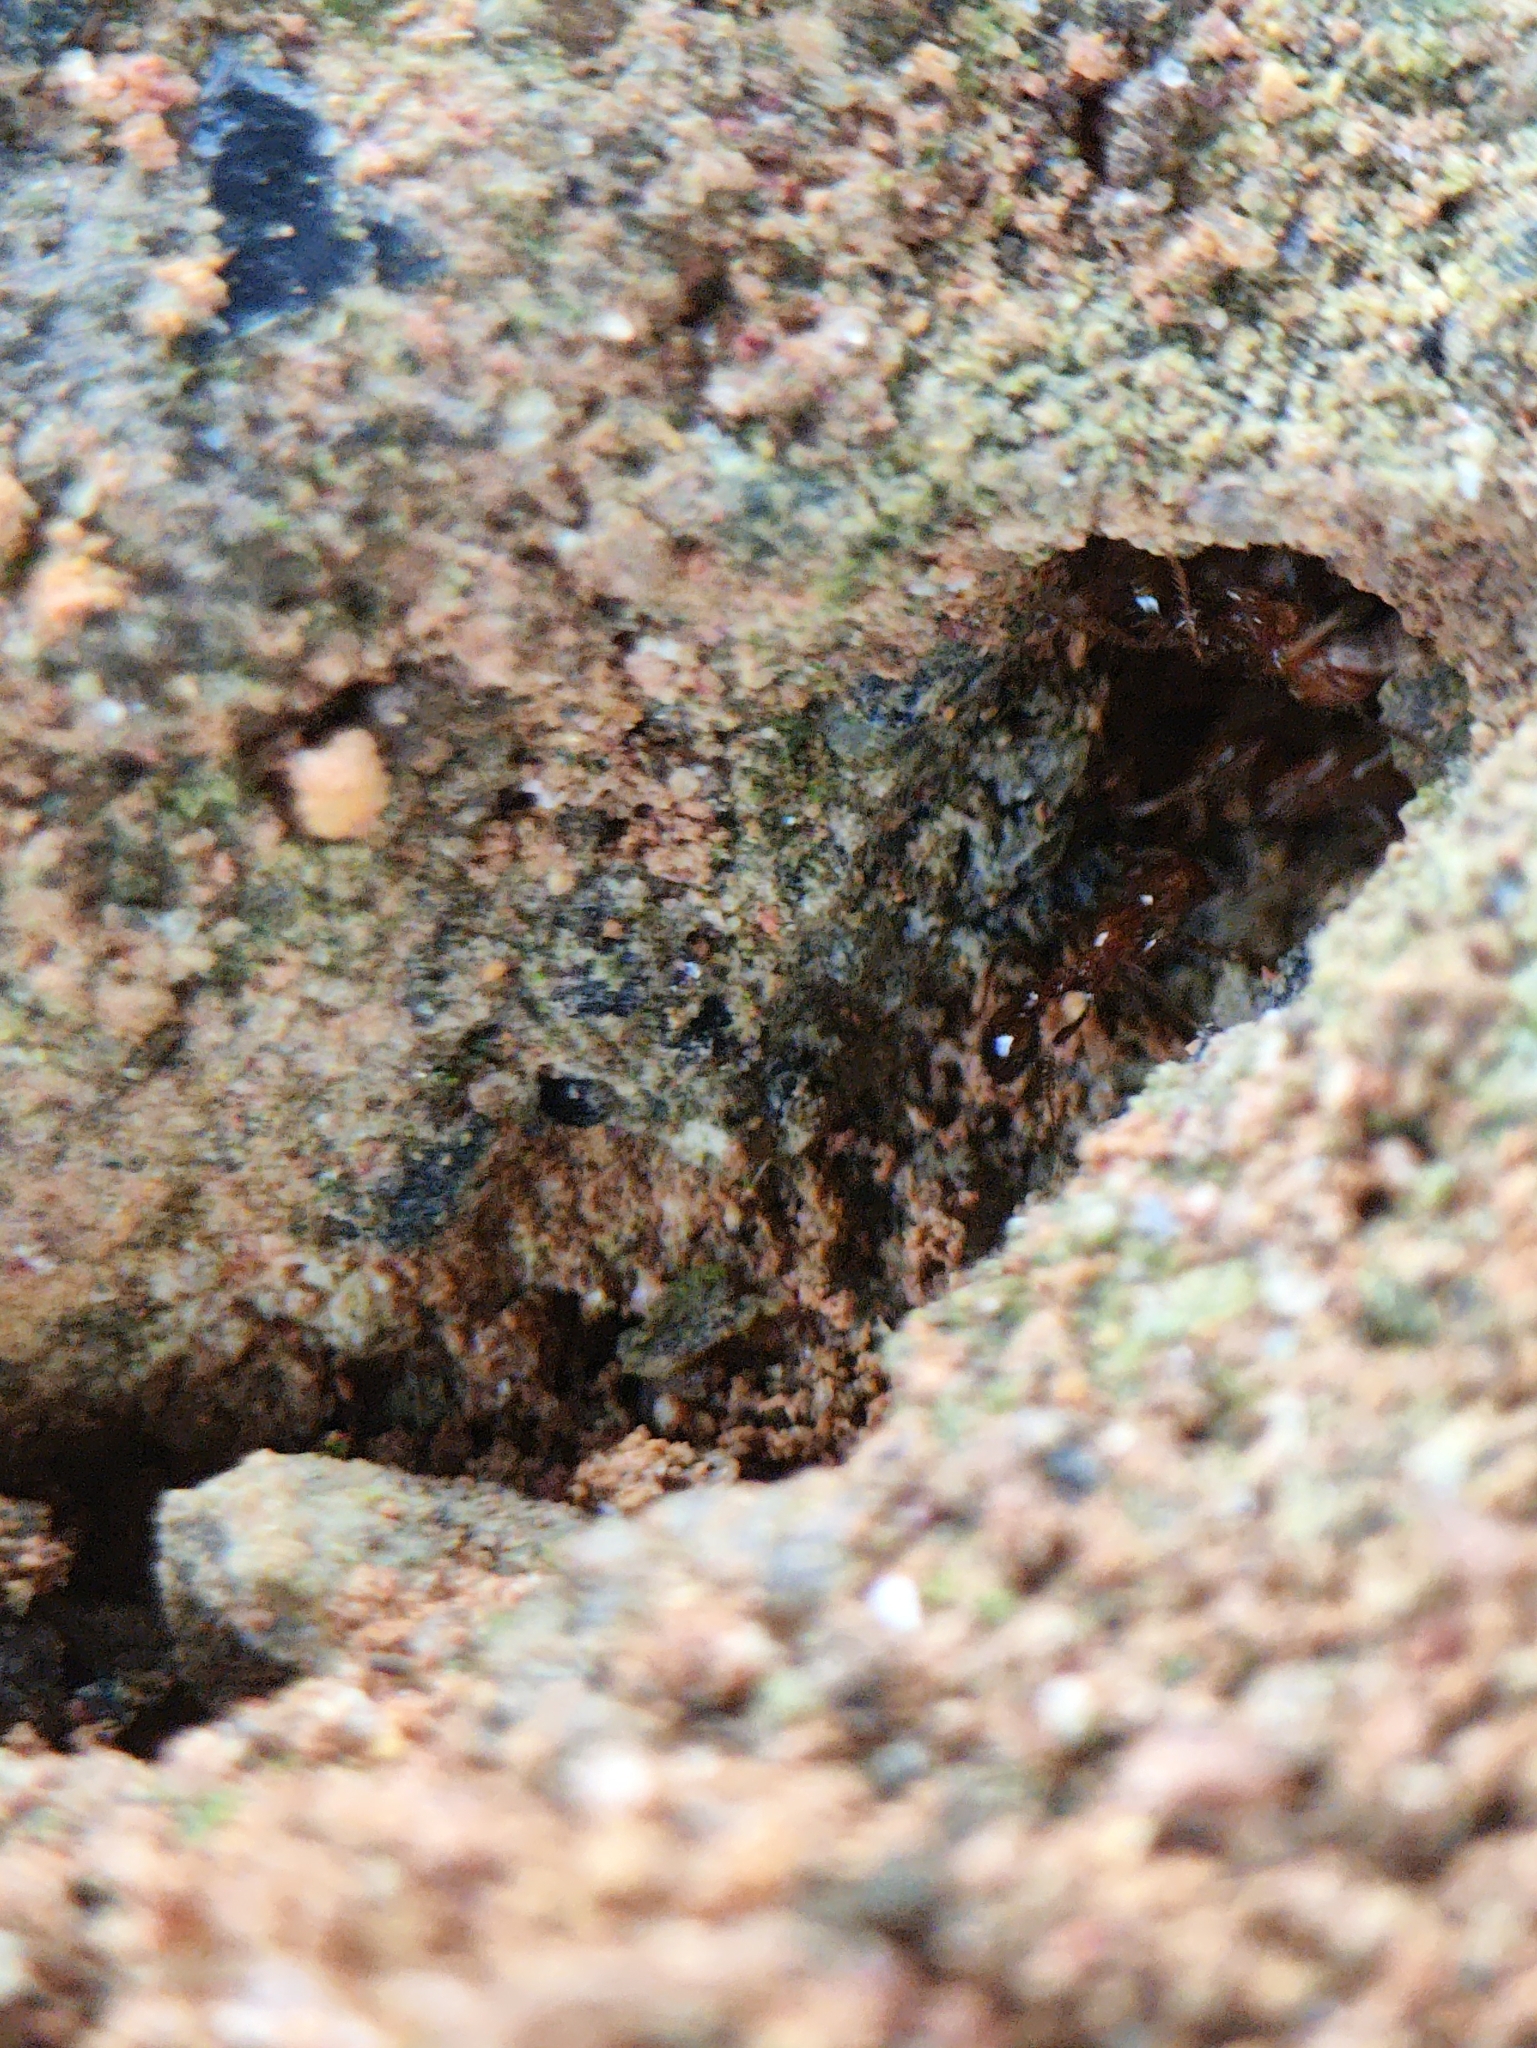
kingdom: Animalia
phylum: Arthropoda
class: Insecta
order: Hymenoptera
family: Formicidae
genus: Solenopsis
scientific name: Solenopsis geminata
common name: Tropical fire ant
